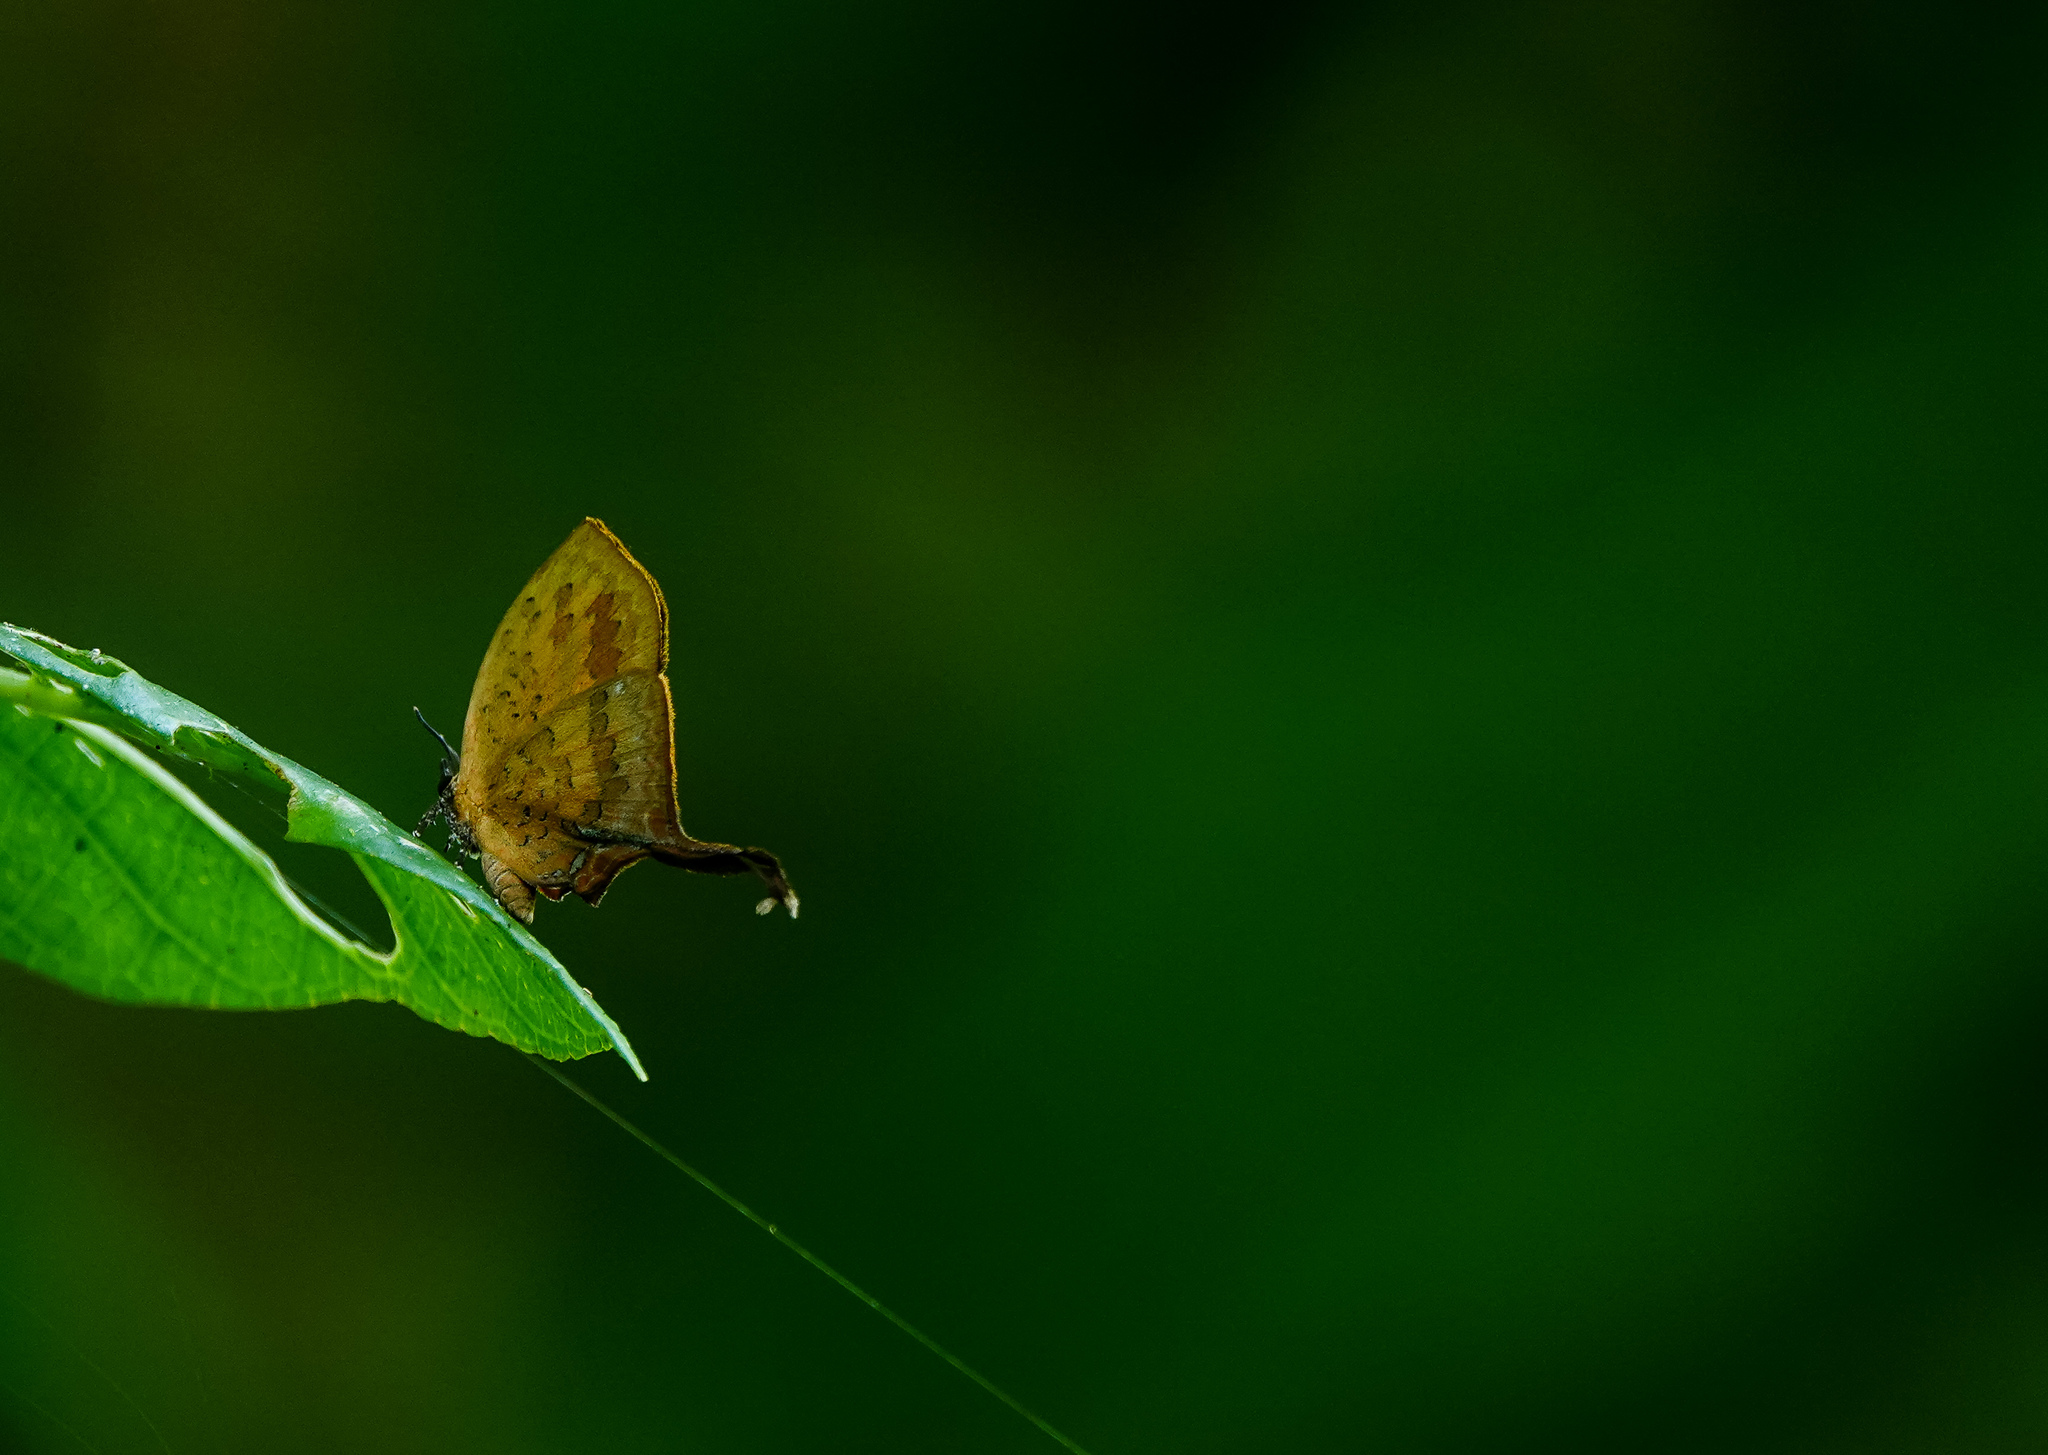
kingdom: Animalia
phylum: Arthropoda
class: Insecta
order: Lepidoptera
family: Lycaenidae
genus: Yasoda
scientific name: Yasoda tripunctata
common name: Branded yamfly
